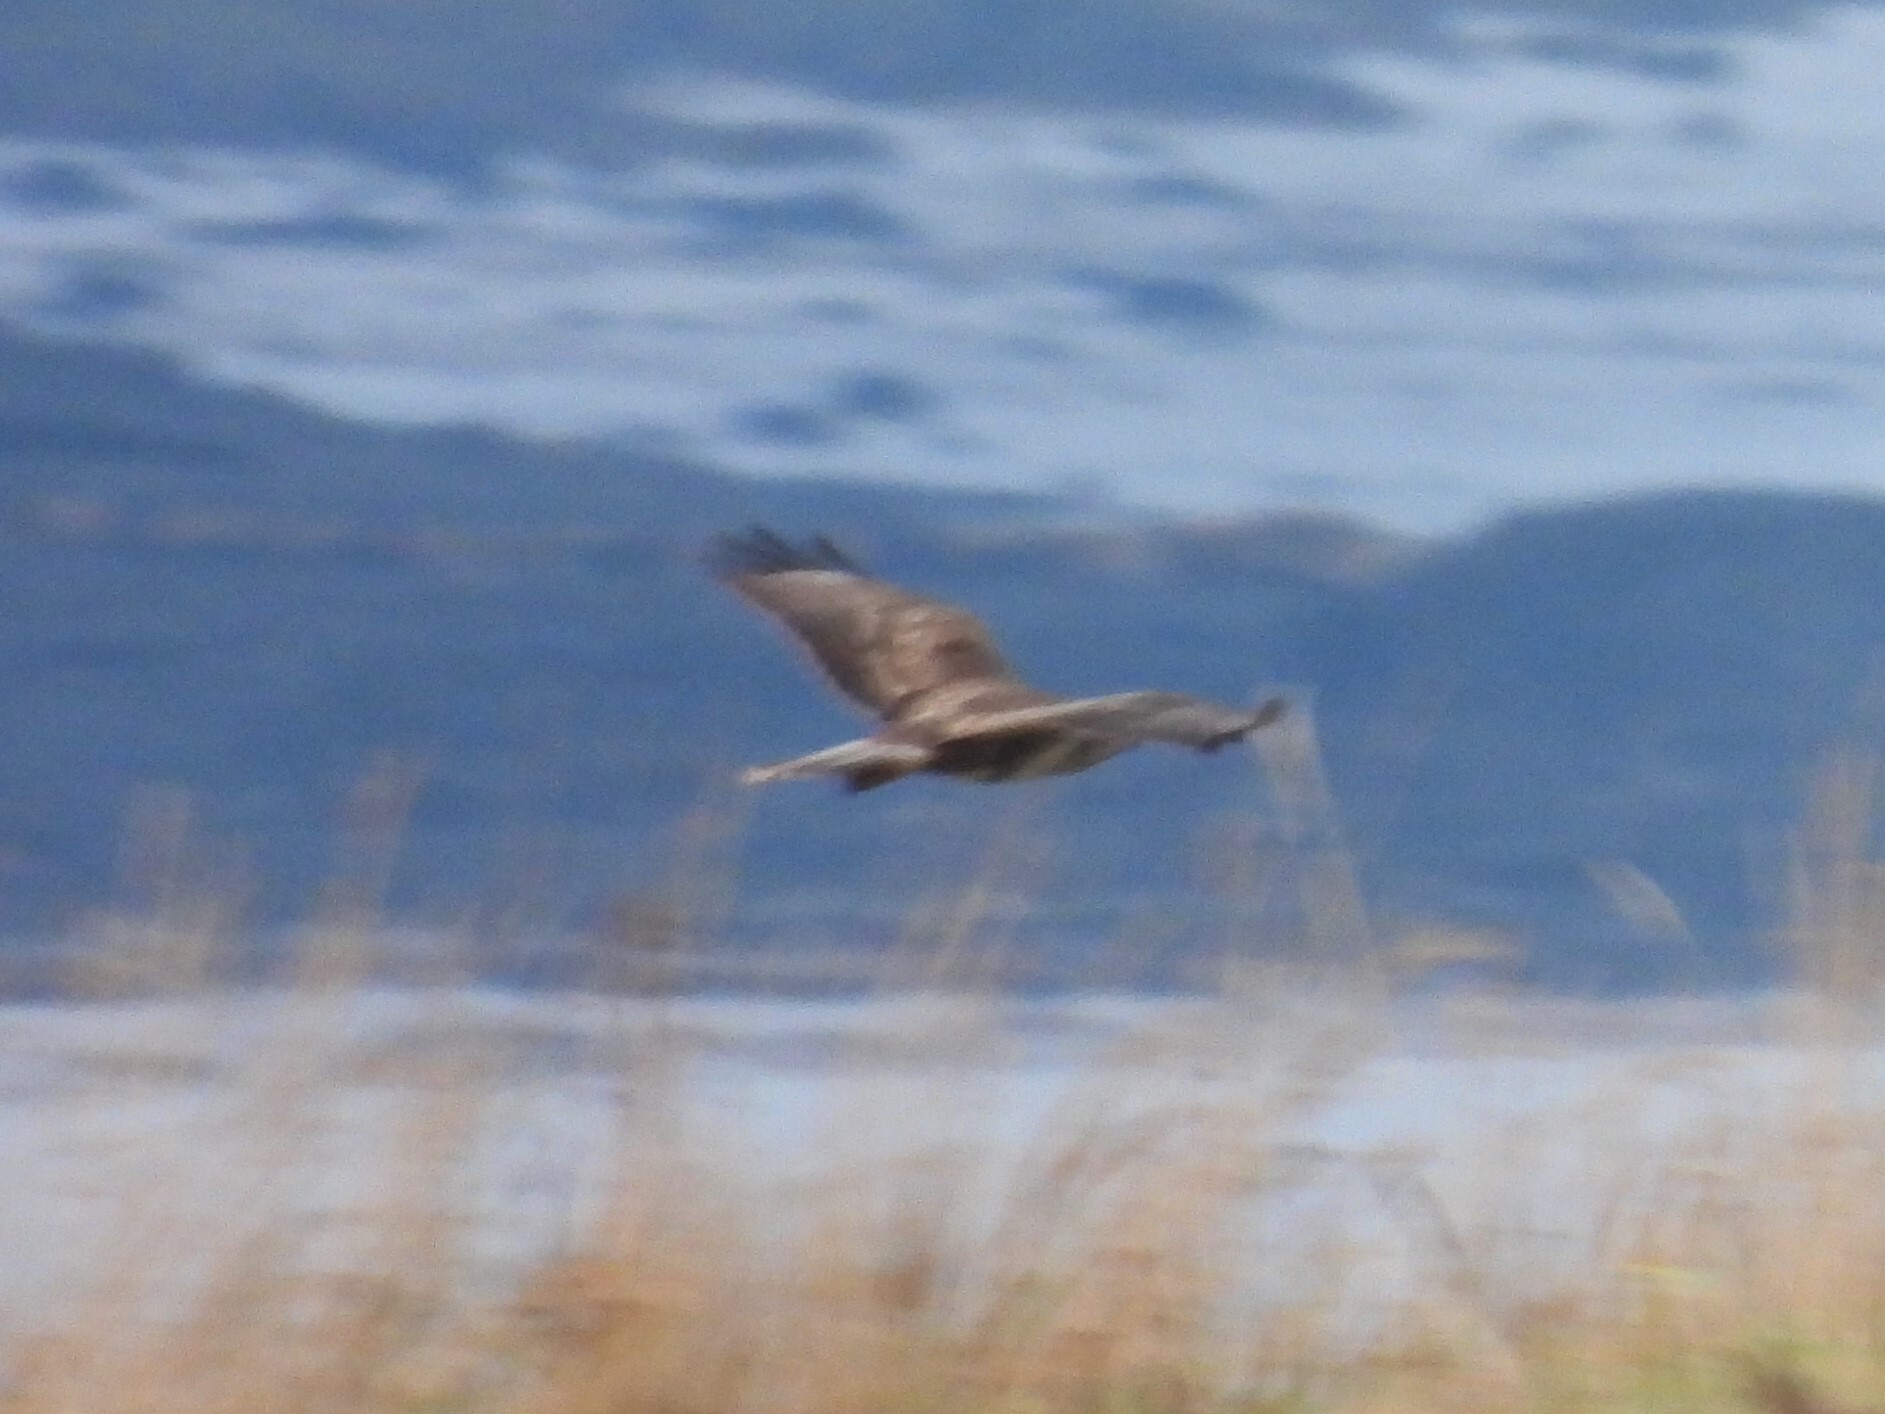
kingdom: Animalia
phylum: Chordata
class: Aves
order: Accipitriformes
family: Accipitridae
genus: Circus
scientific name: Circus aeruginosus
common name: Western marsh harrier
